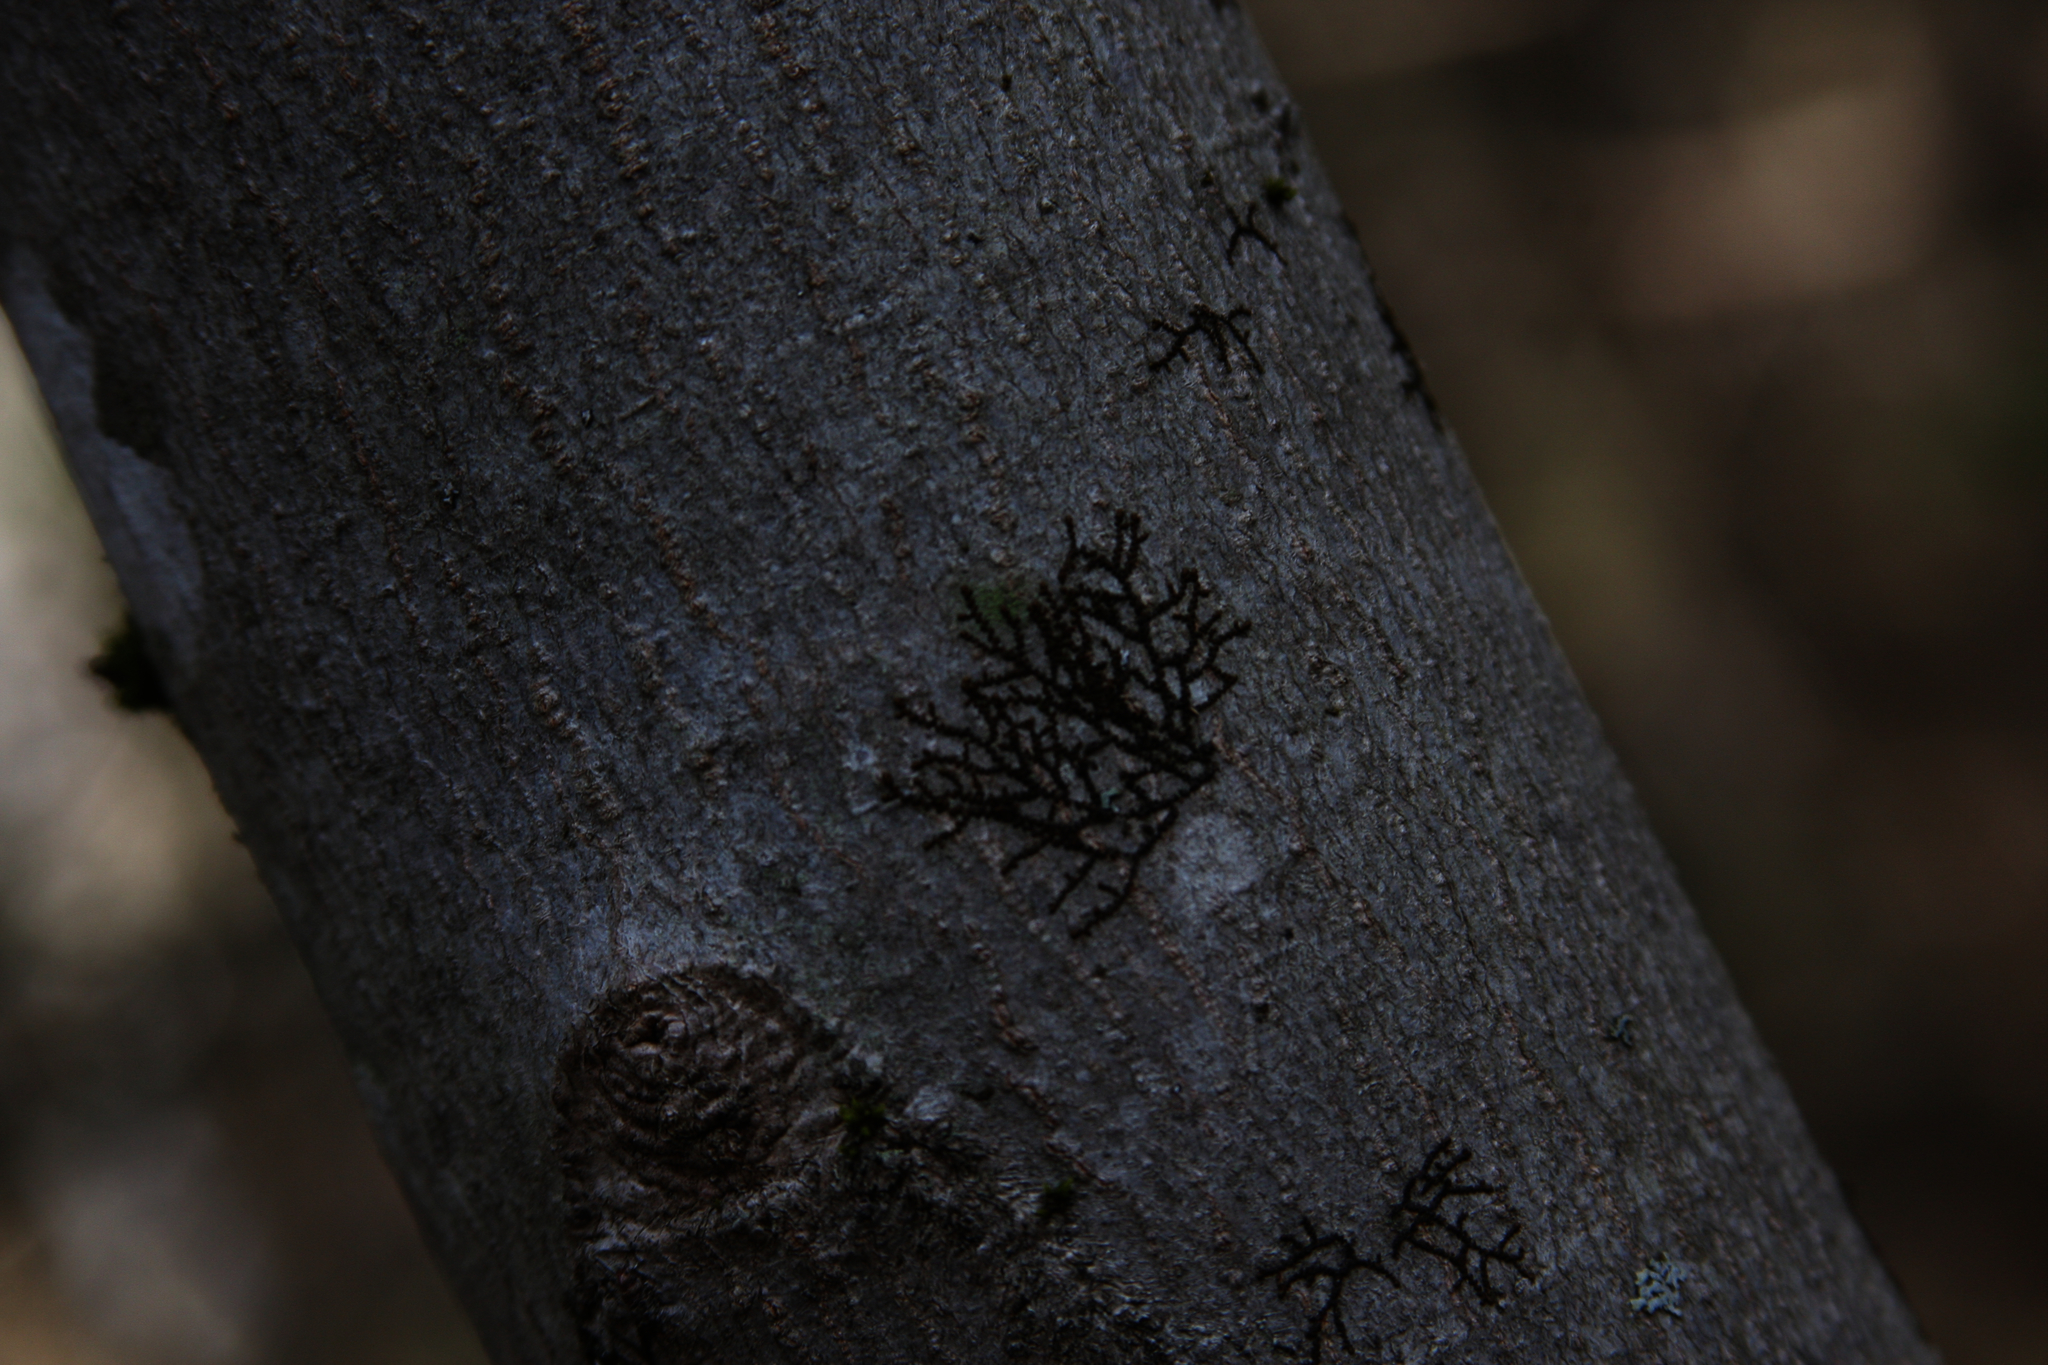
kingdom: Plantae
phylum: Marchantiophyta
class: Jungermanniopsida
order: Porellales
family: Frullaniaceae
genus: Frullania
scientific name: Frullania eboracensis
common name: New york scalewort
